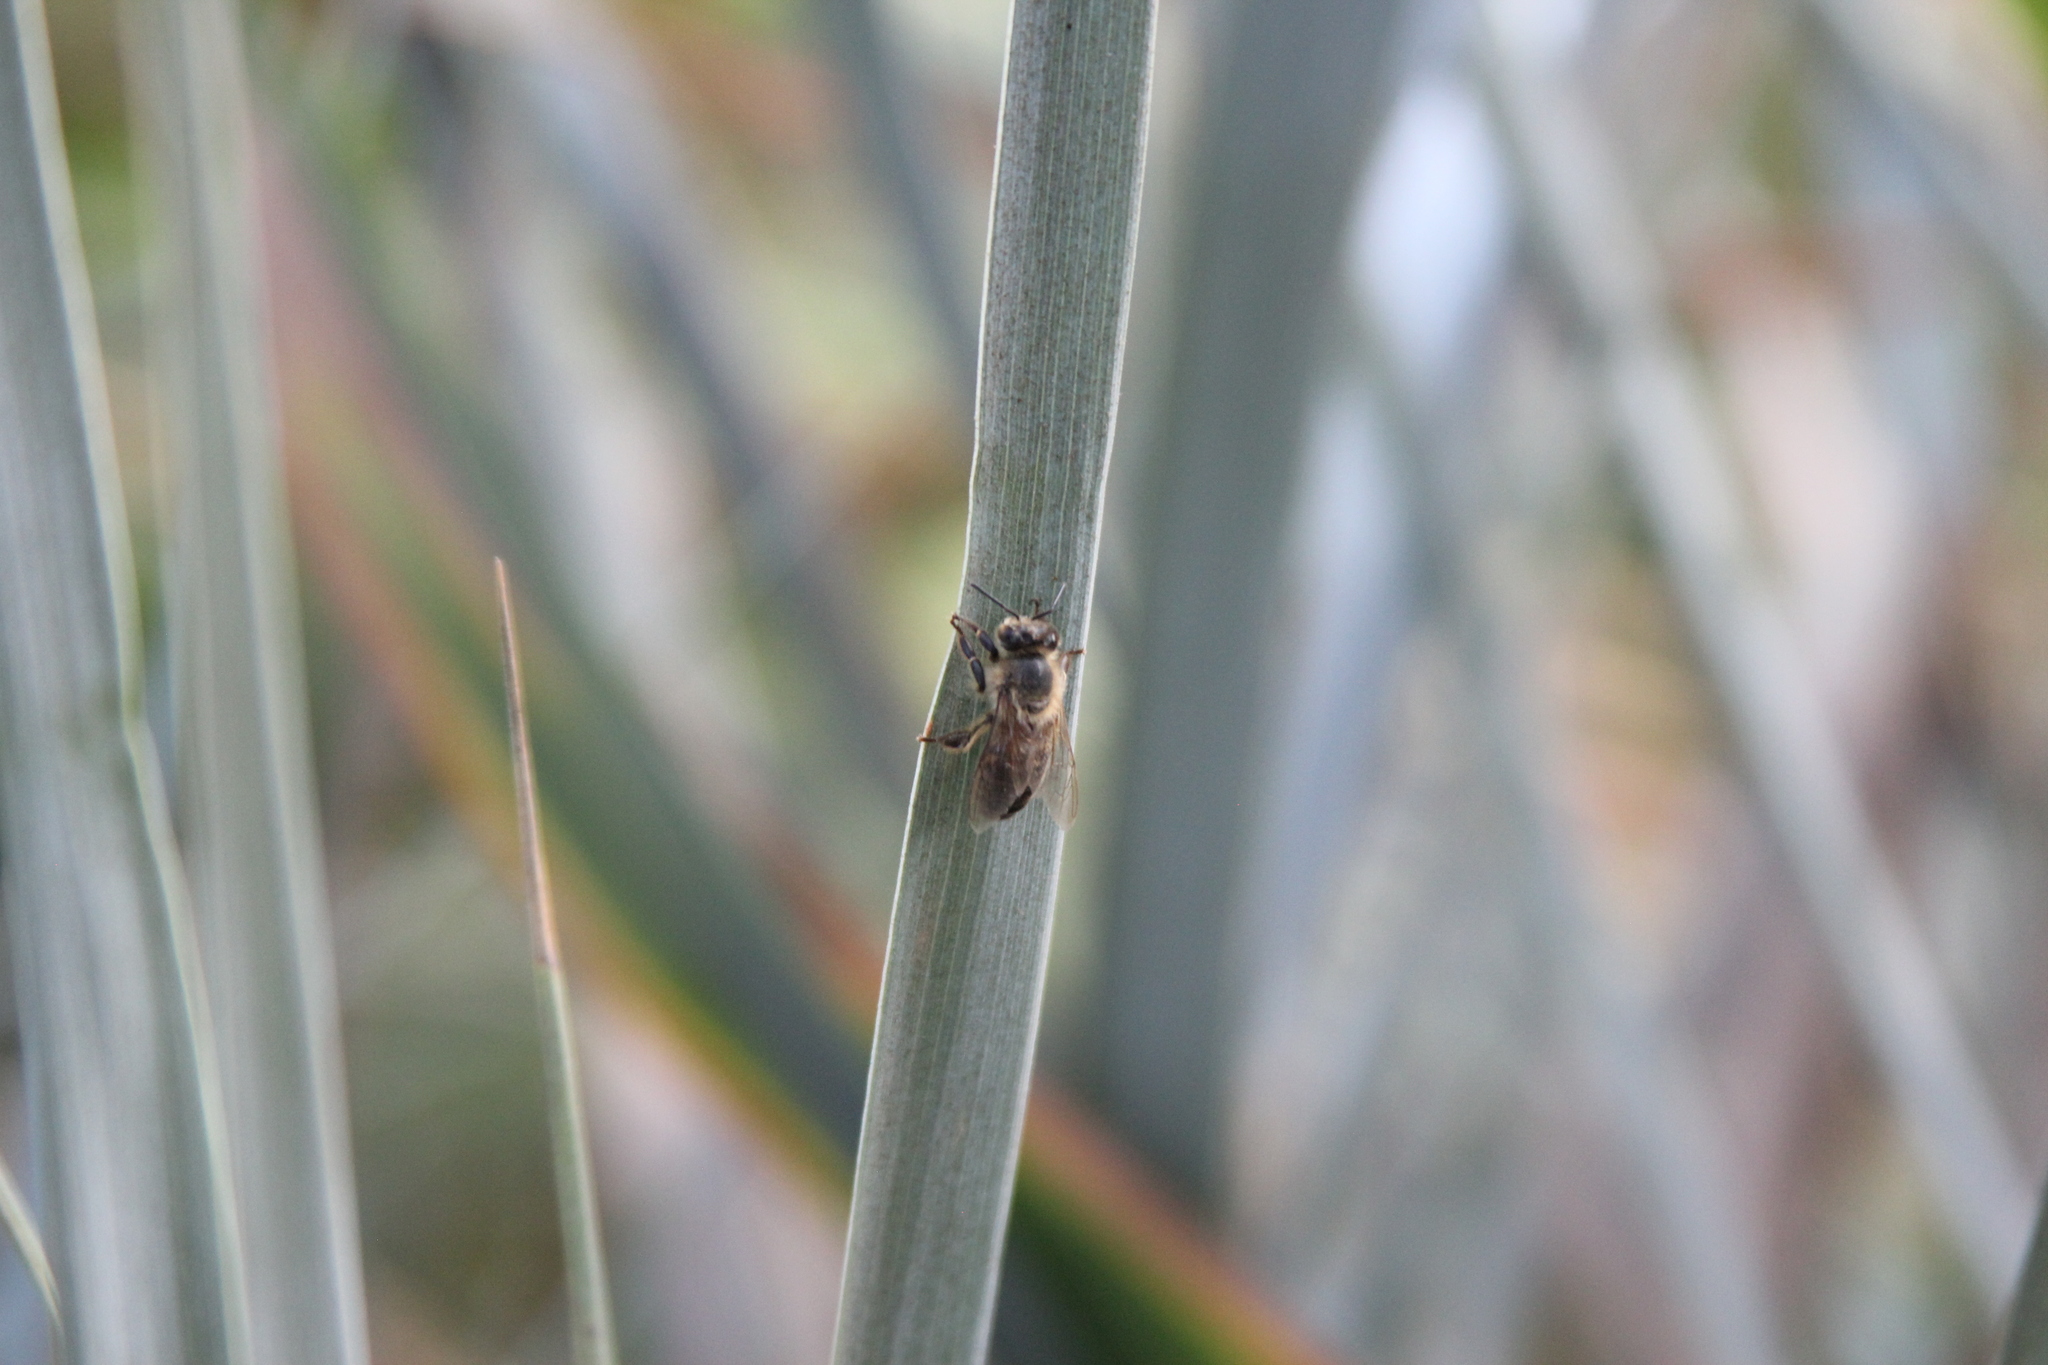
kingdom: Animalia
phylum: Arthropoda
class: Insecta
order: Hymenoptera
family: Apidae
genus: Apis
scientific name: Apis mellifera
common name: Honey bee
